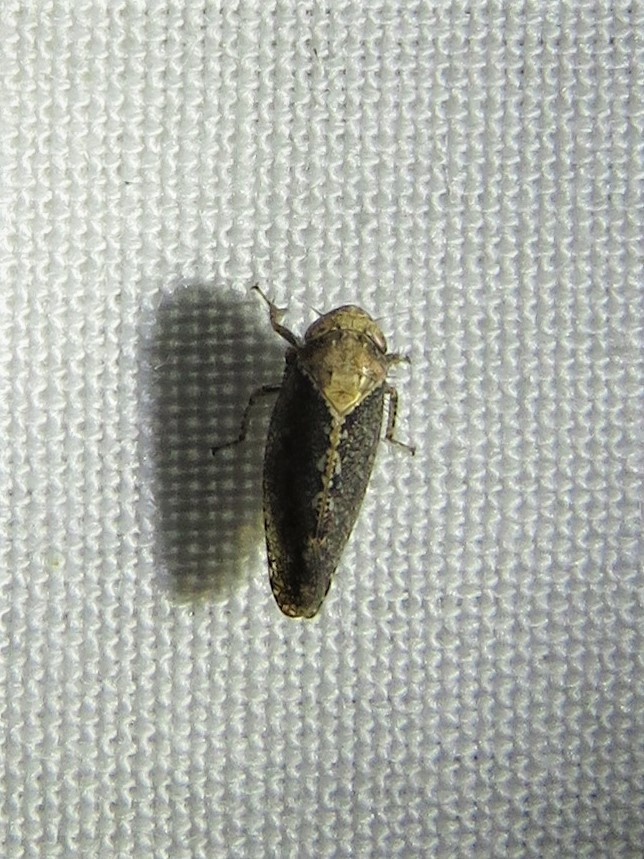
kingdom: Animalia
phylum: Arthropoda
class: Insecta
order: Hemiptera
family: Cicadellidae
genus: Excultanus
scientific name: Excultanus excultus
